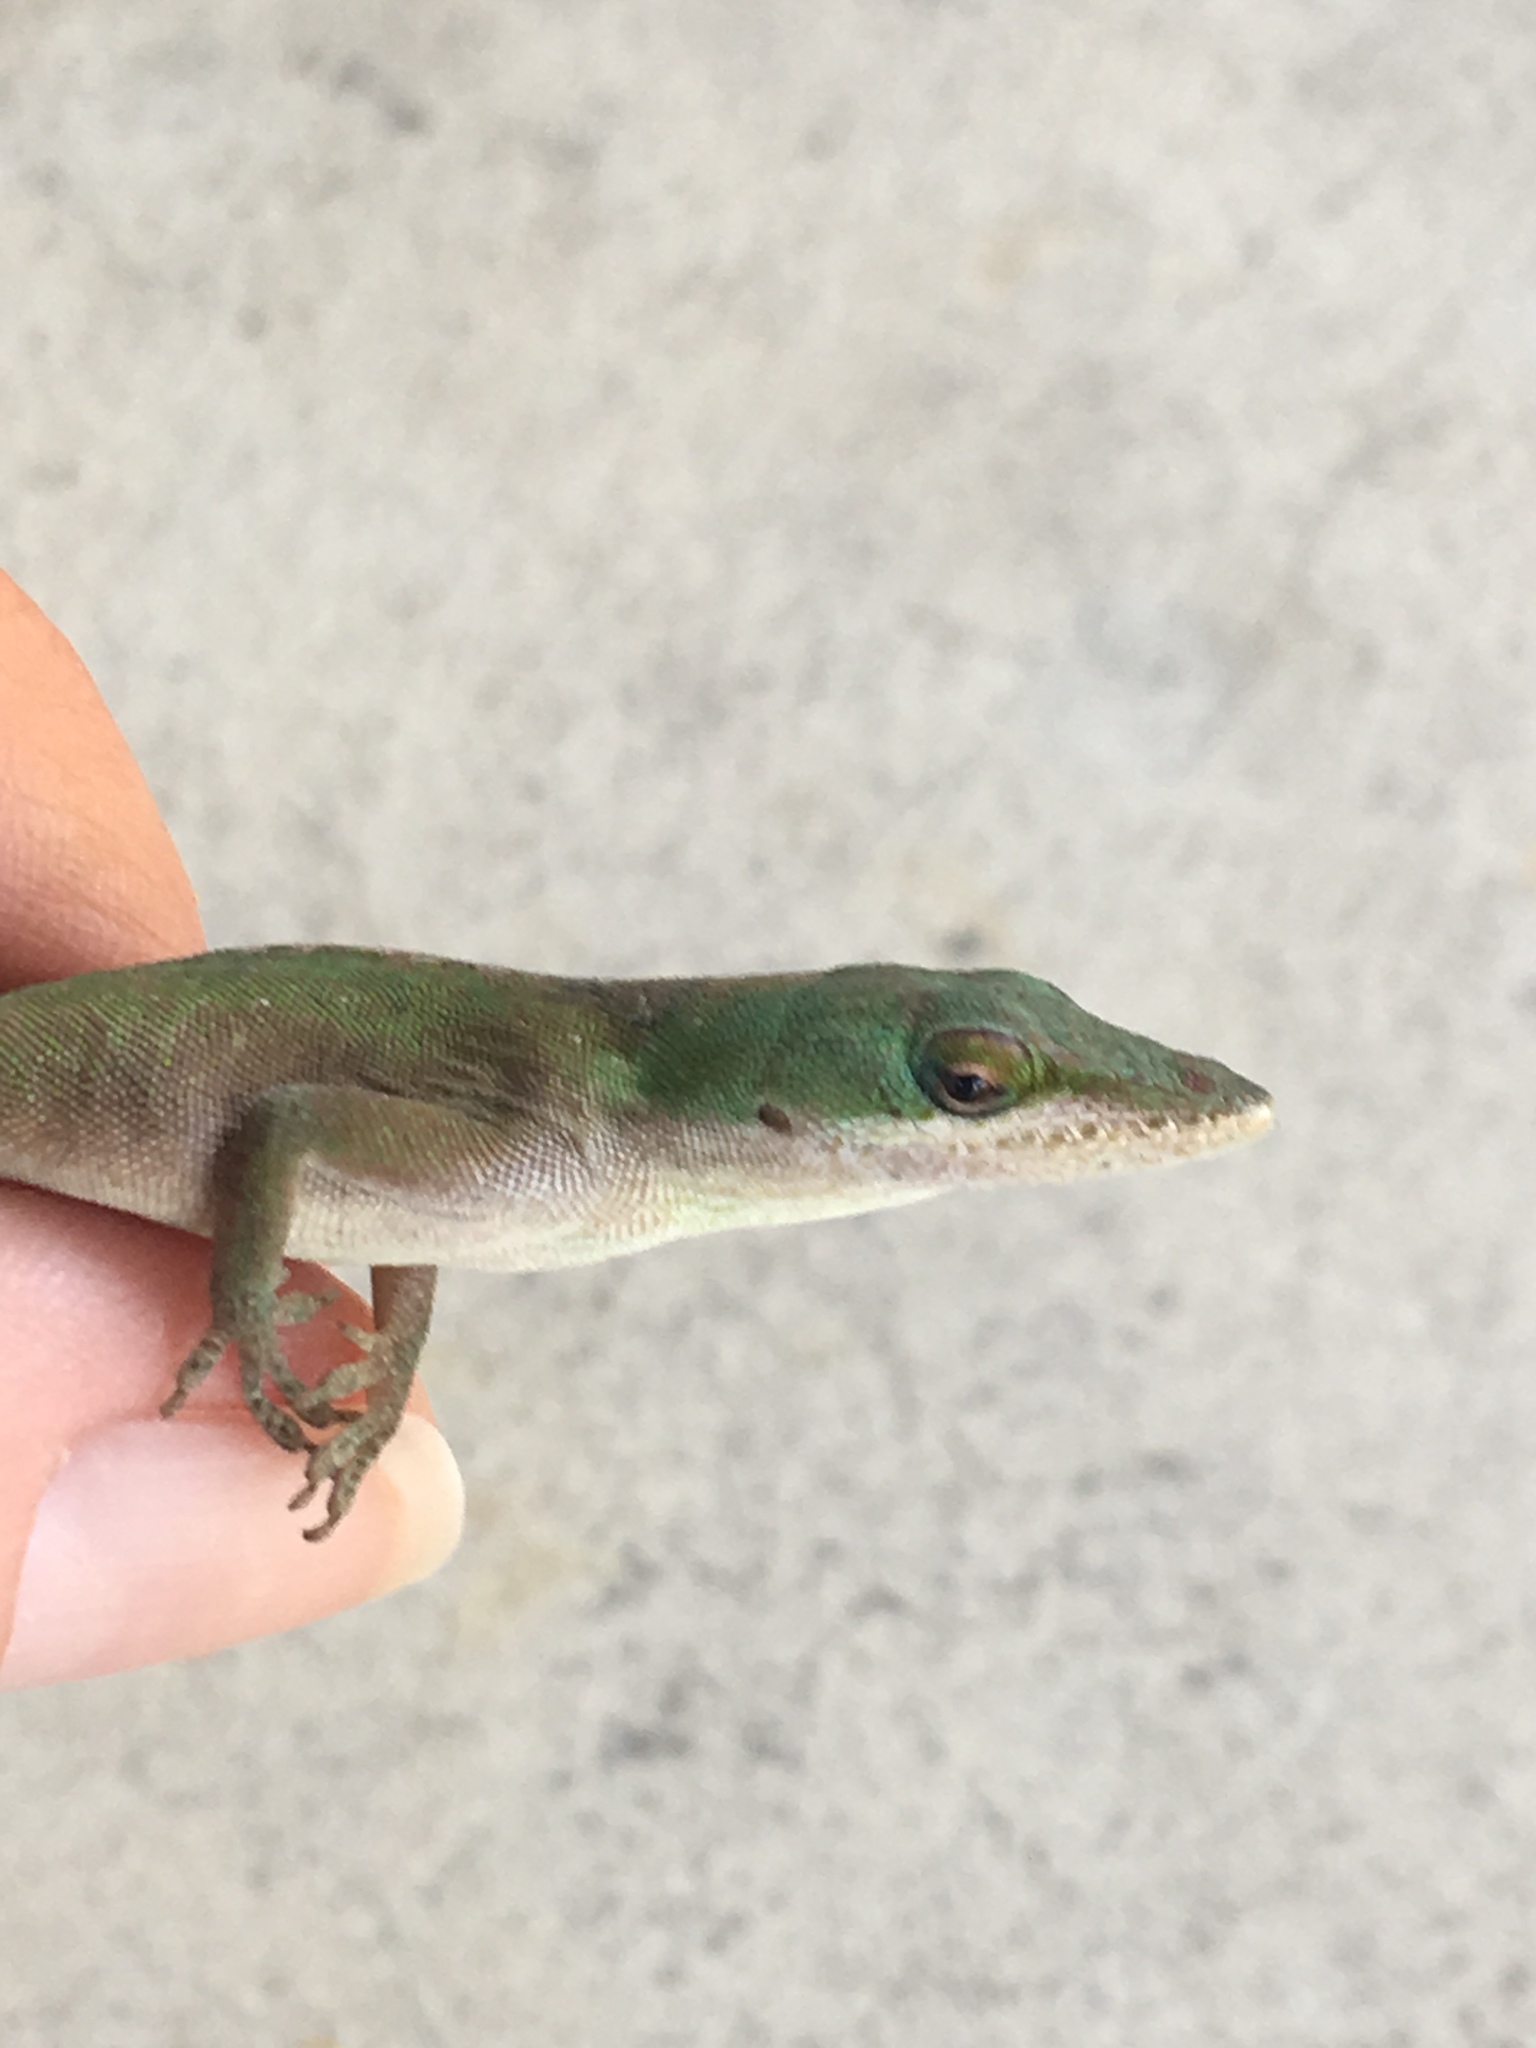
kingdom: Animalia
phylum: Chordata
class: Squamata
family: Dactyloidae
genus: Anolis
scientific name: Anolis carolinensis
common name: Green anole
